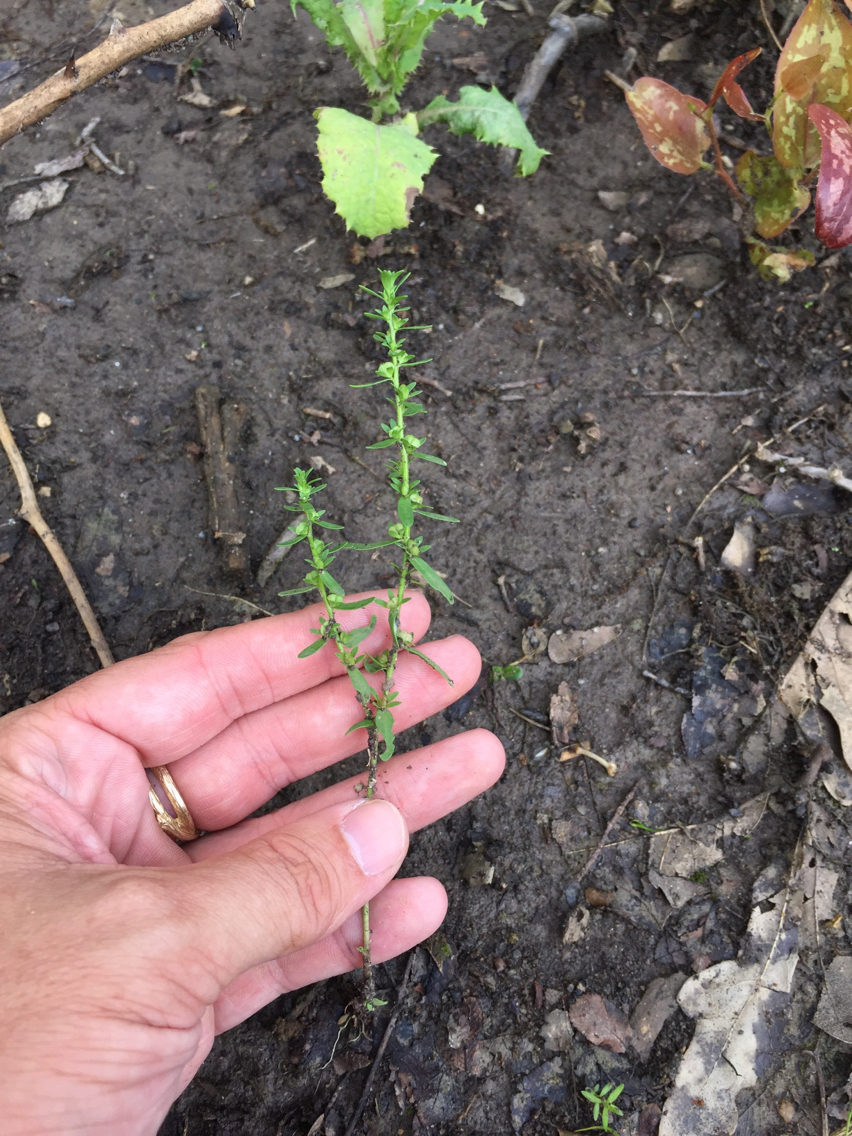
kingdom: Plantae
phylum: Tracheophyta
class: Magnoliopsida
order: Lamiales
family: Plantaginaceae
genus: Veronica
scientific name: Veronica peregrina
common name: Neckweed
